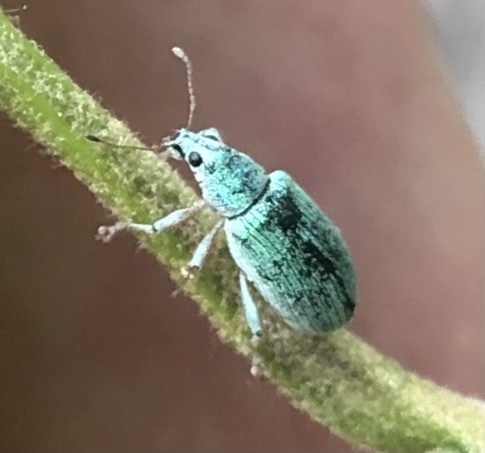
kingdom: Animalia
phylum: Arthropoda
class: Insecta
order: Coleoptera
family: Curculionidae
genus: Polydrusus
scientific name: Polydrusus formosus
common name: Weevil
